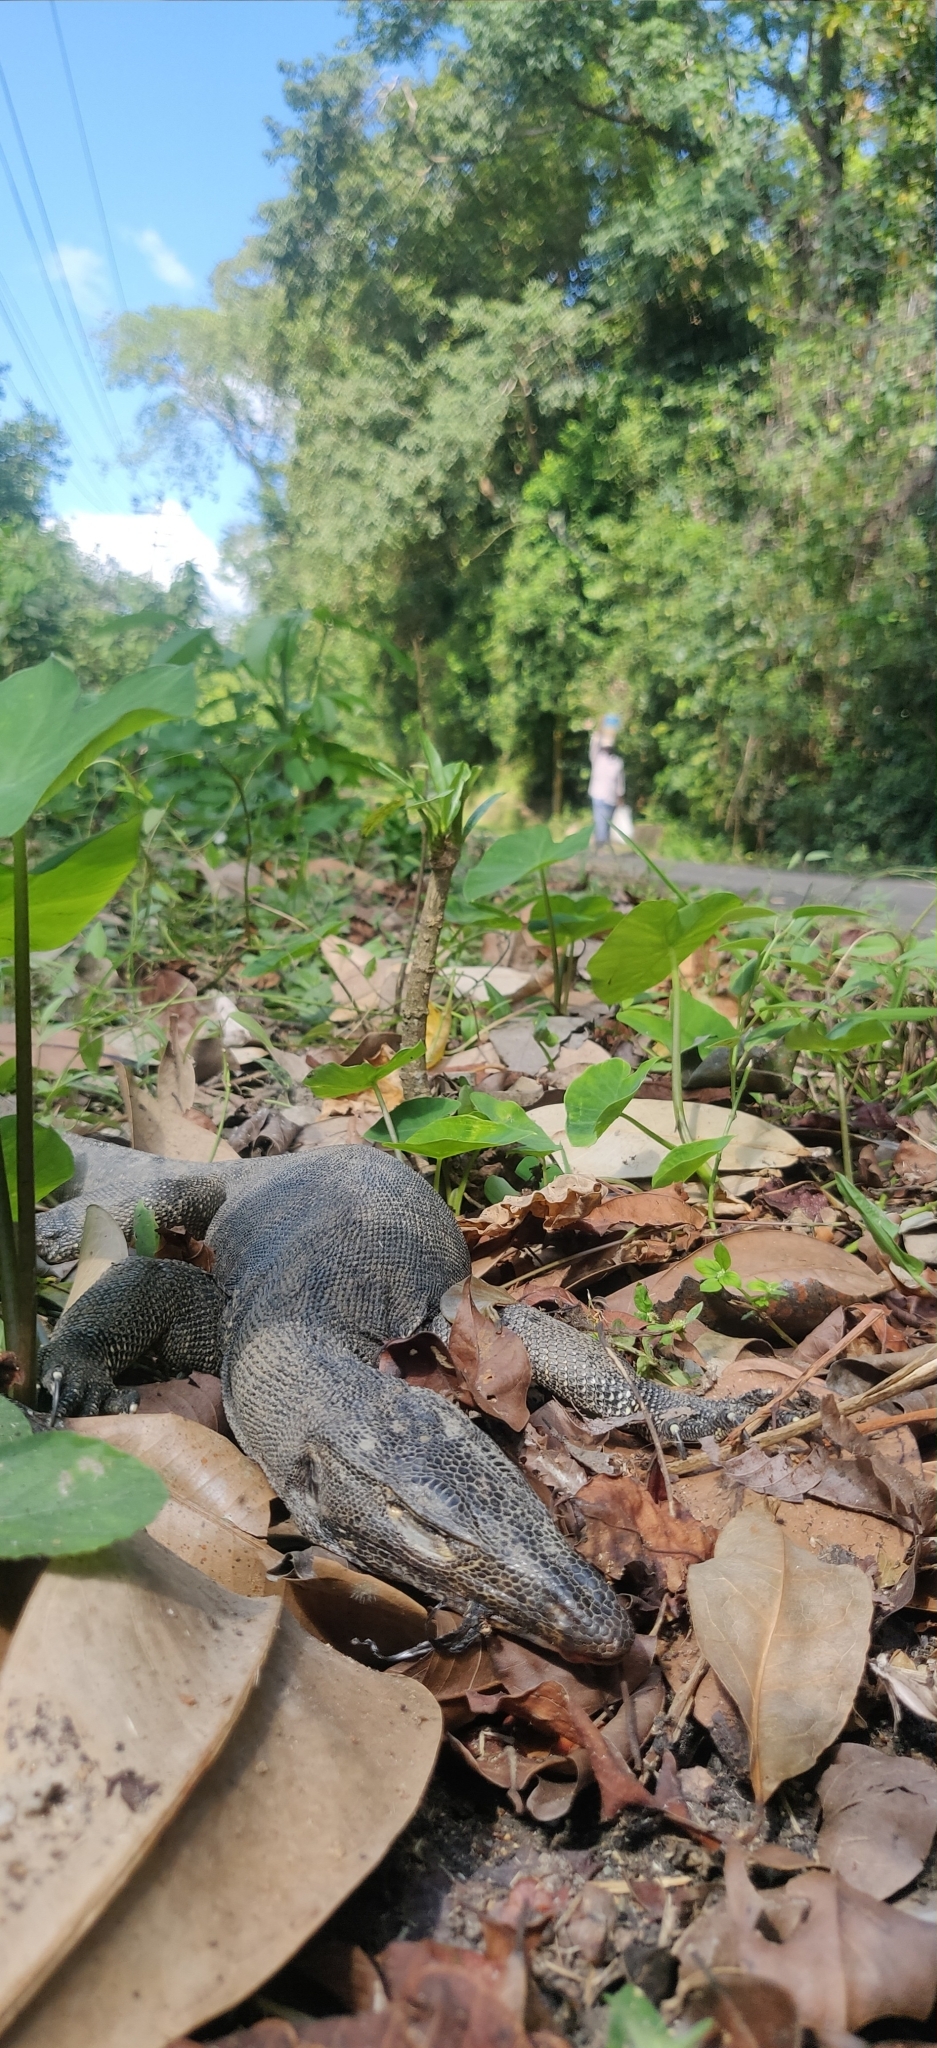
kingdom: Animalia
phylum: Chordata
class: Squamata
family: Varanidae
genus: Varanus
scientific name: Varanus salvator
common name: Common water monitor
